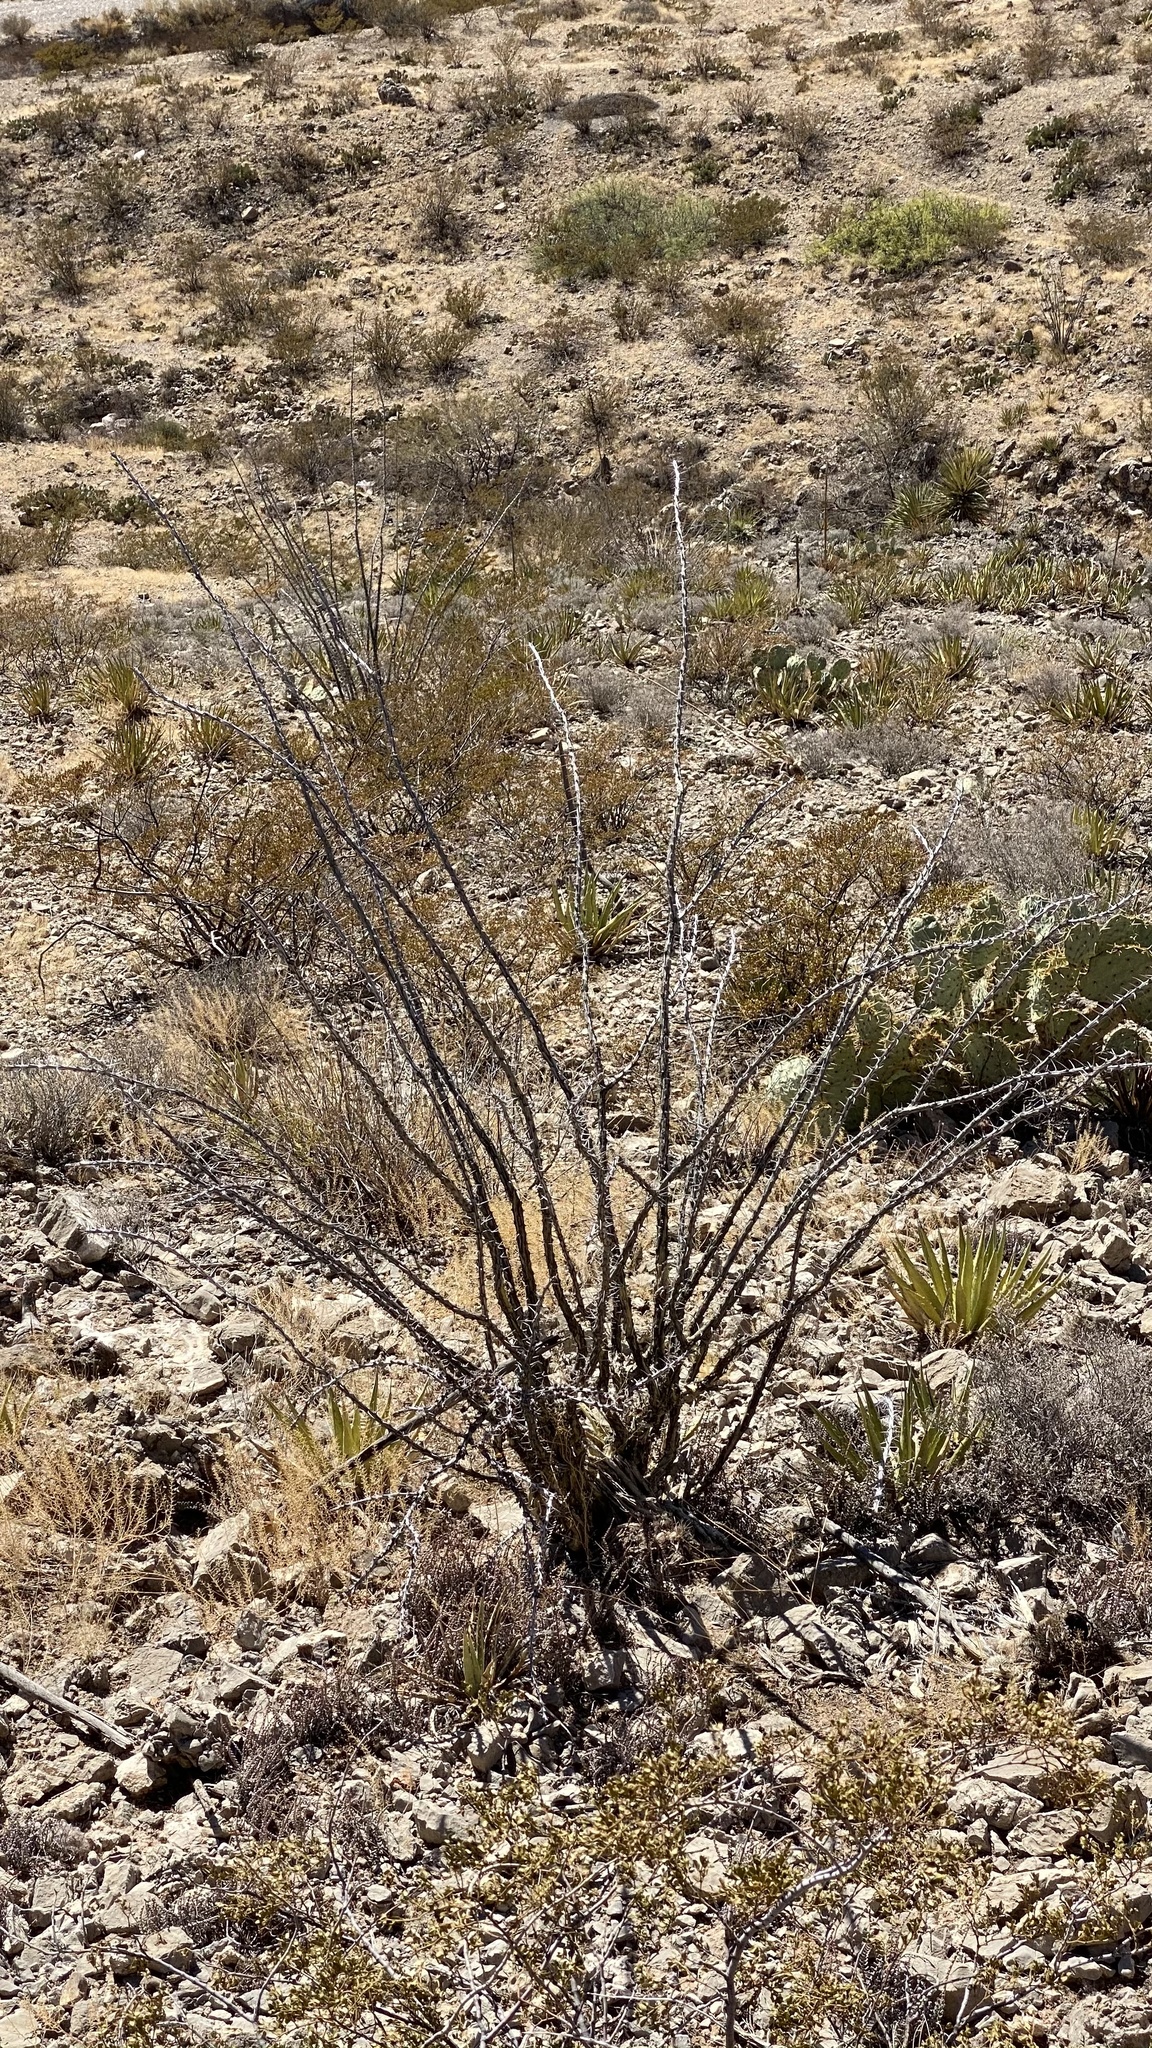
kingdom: Plantae
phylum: Tracheophyta
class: Magnoliopsida
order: Ericales
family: Fouquieriaceae
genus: Fouquieria
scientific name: Fouquieria splendens
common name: Vine-cactus
